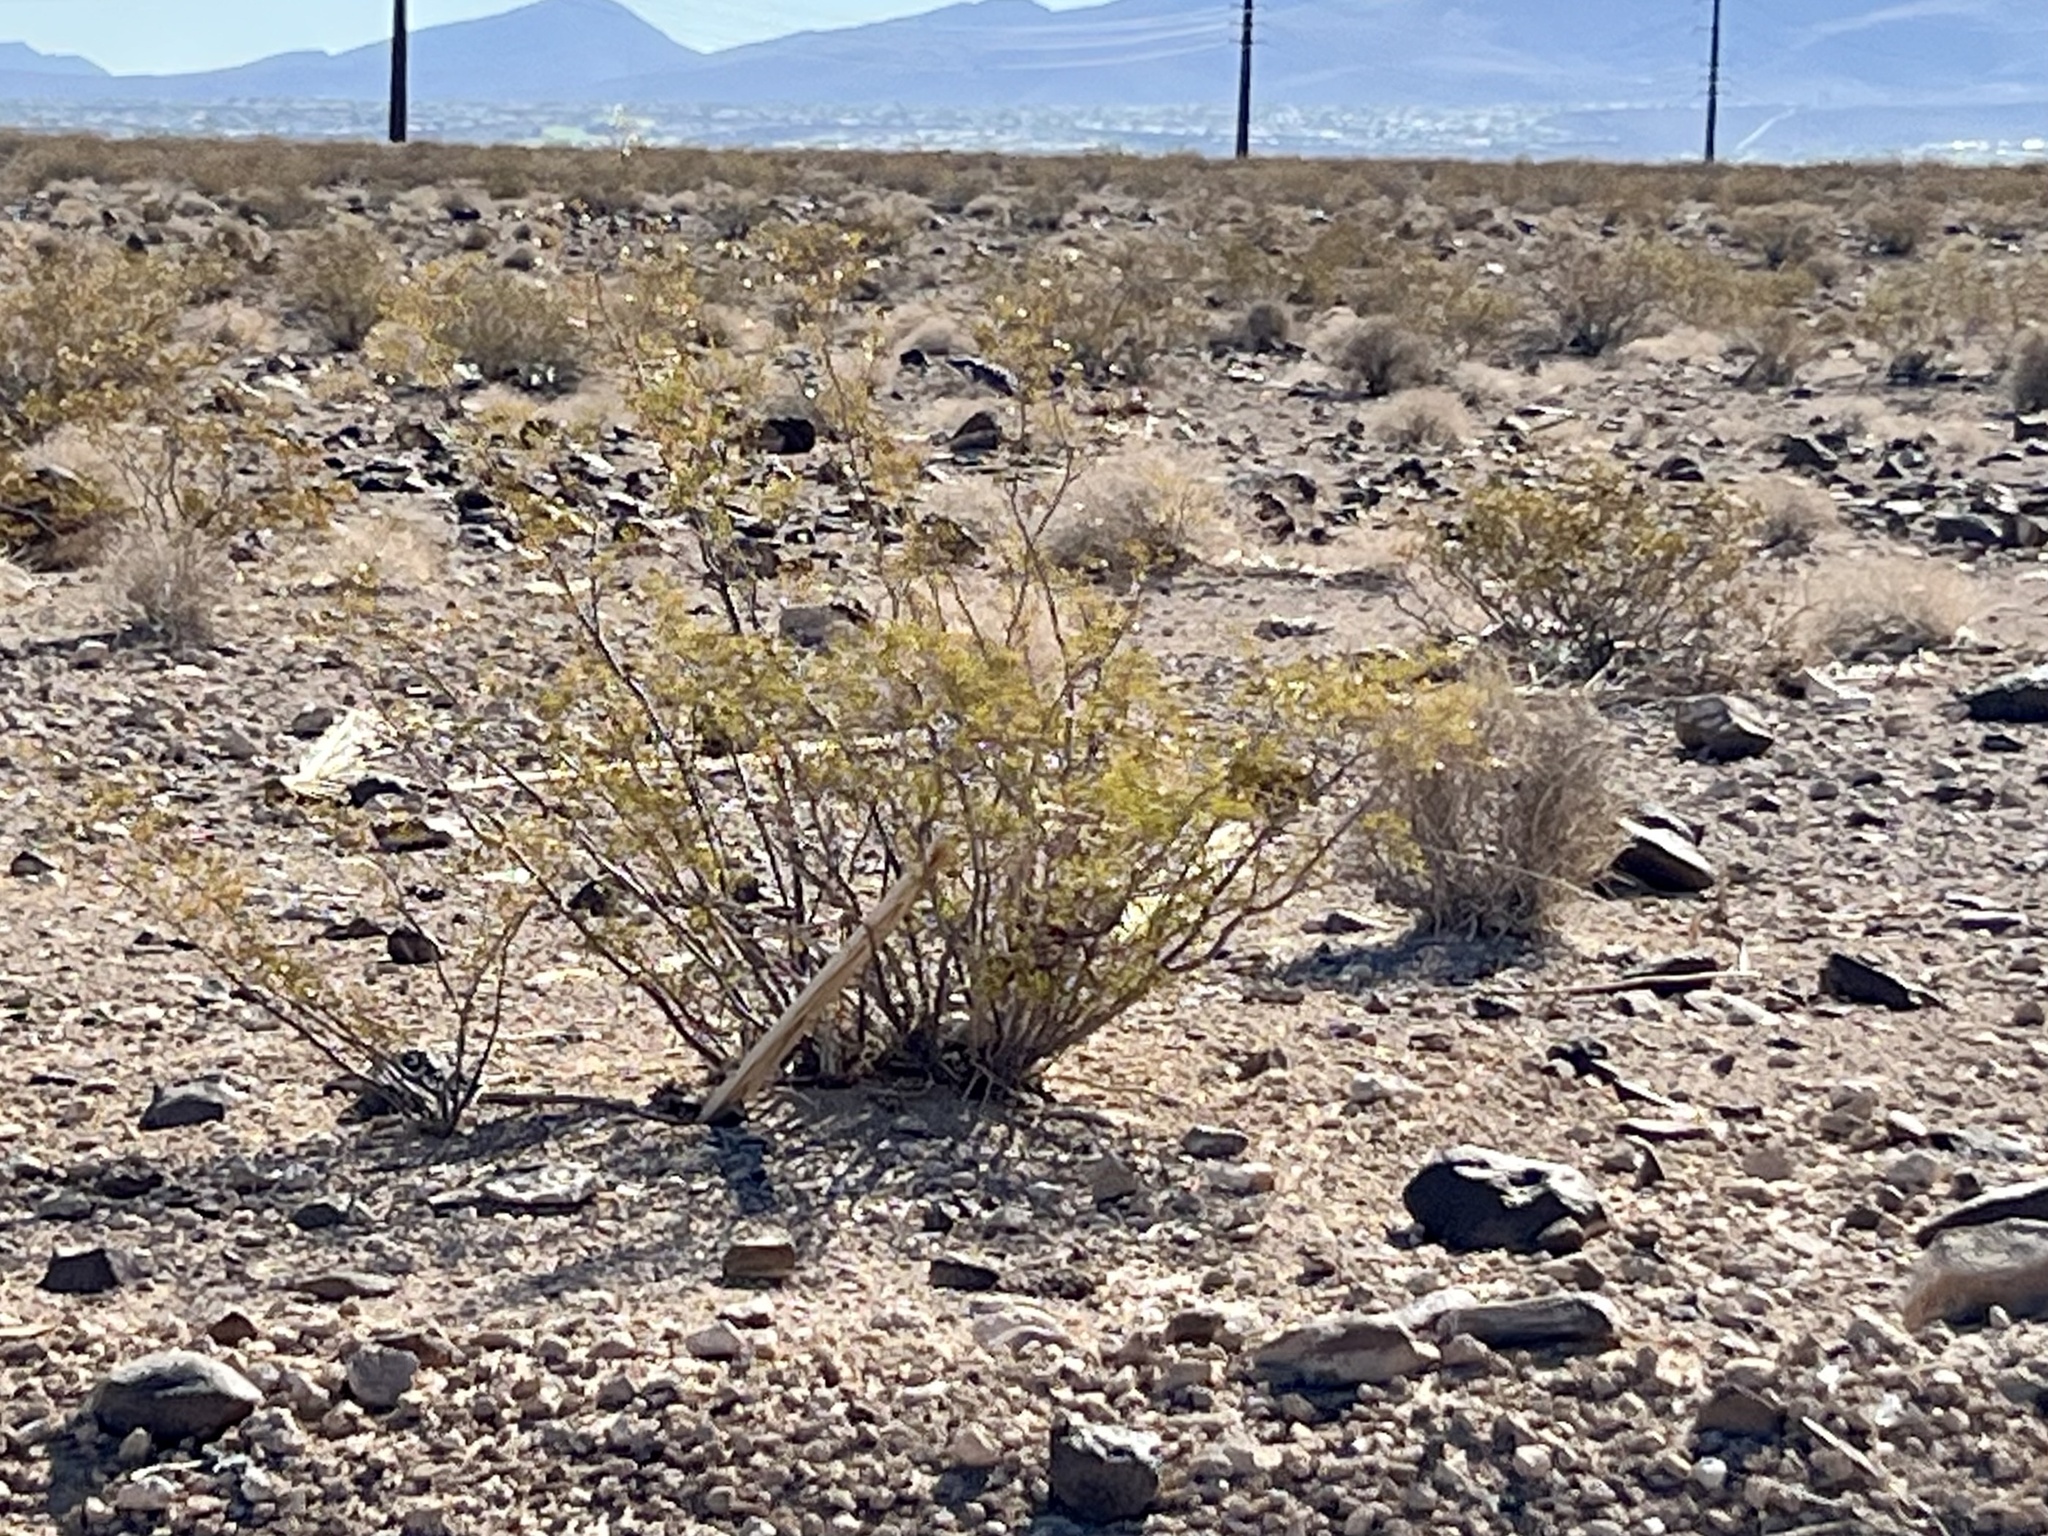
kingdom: Plantae
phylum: Tracheophyta
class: Magnoliopsida
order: Zygophyllales
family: Zygophyllaceae
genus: Larrea
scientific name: Larrea tridentata
